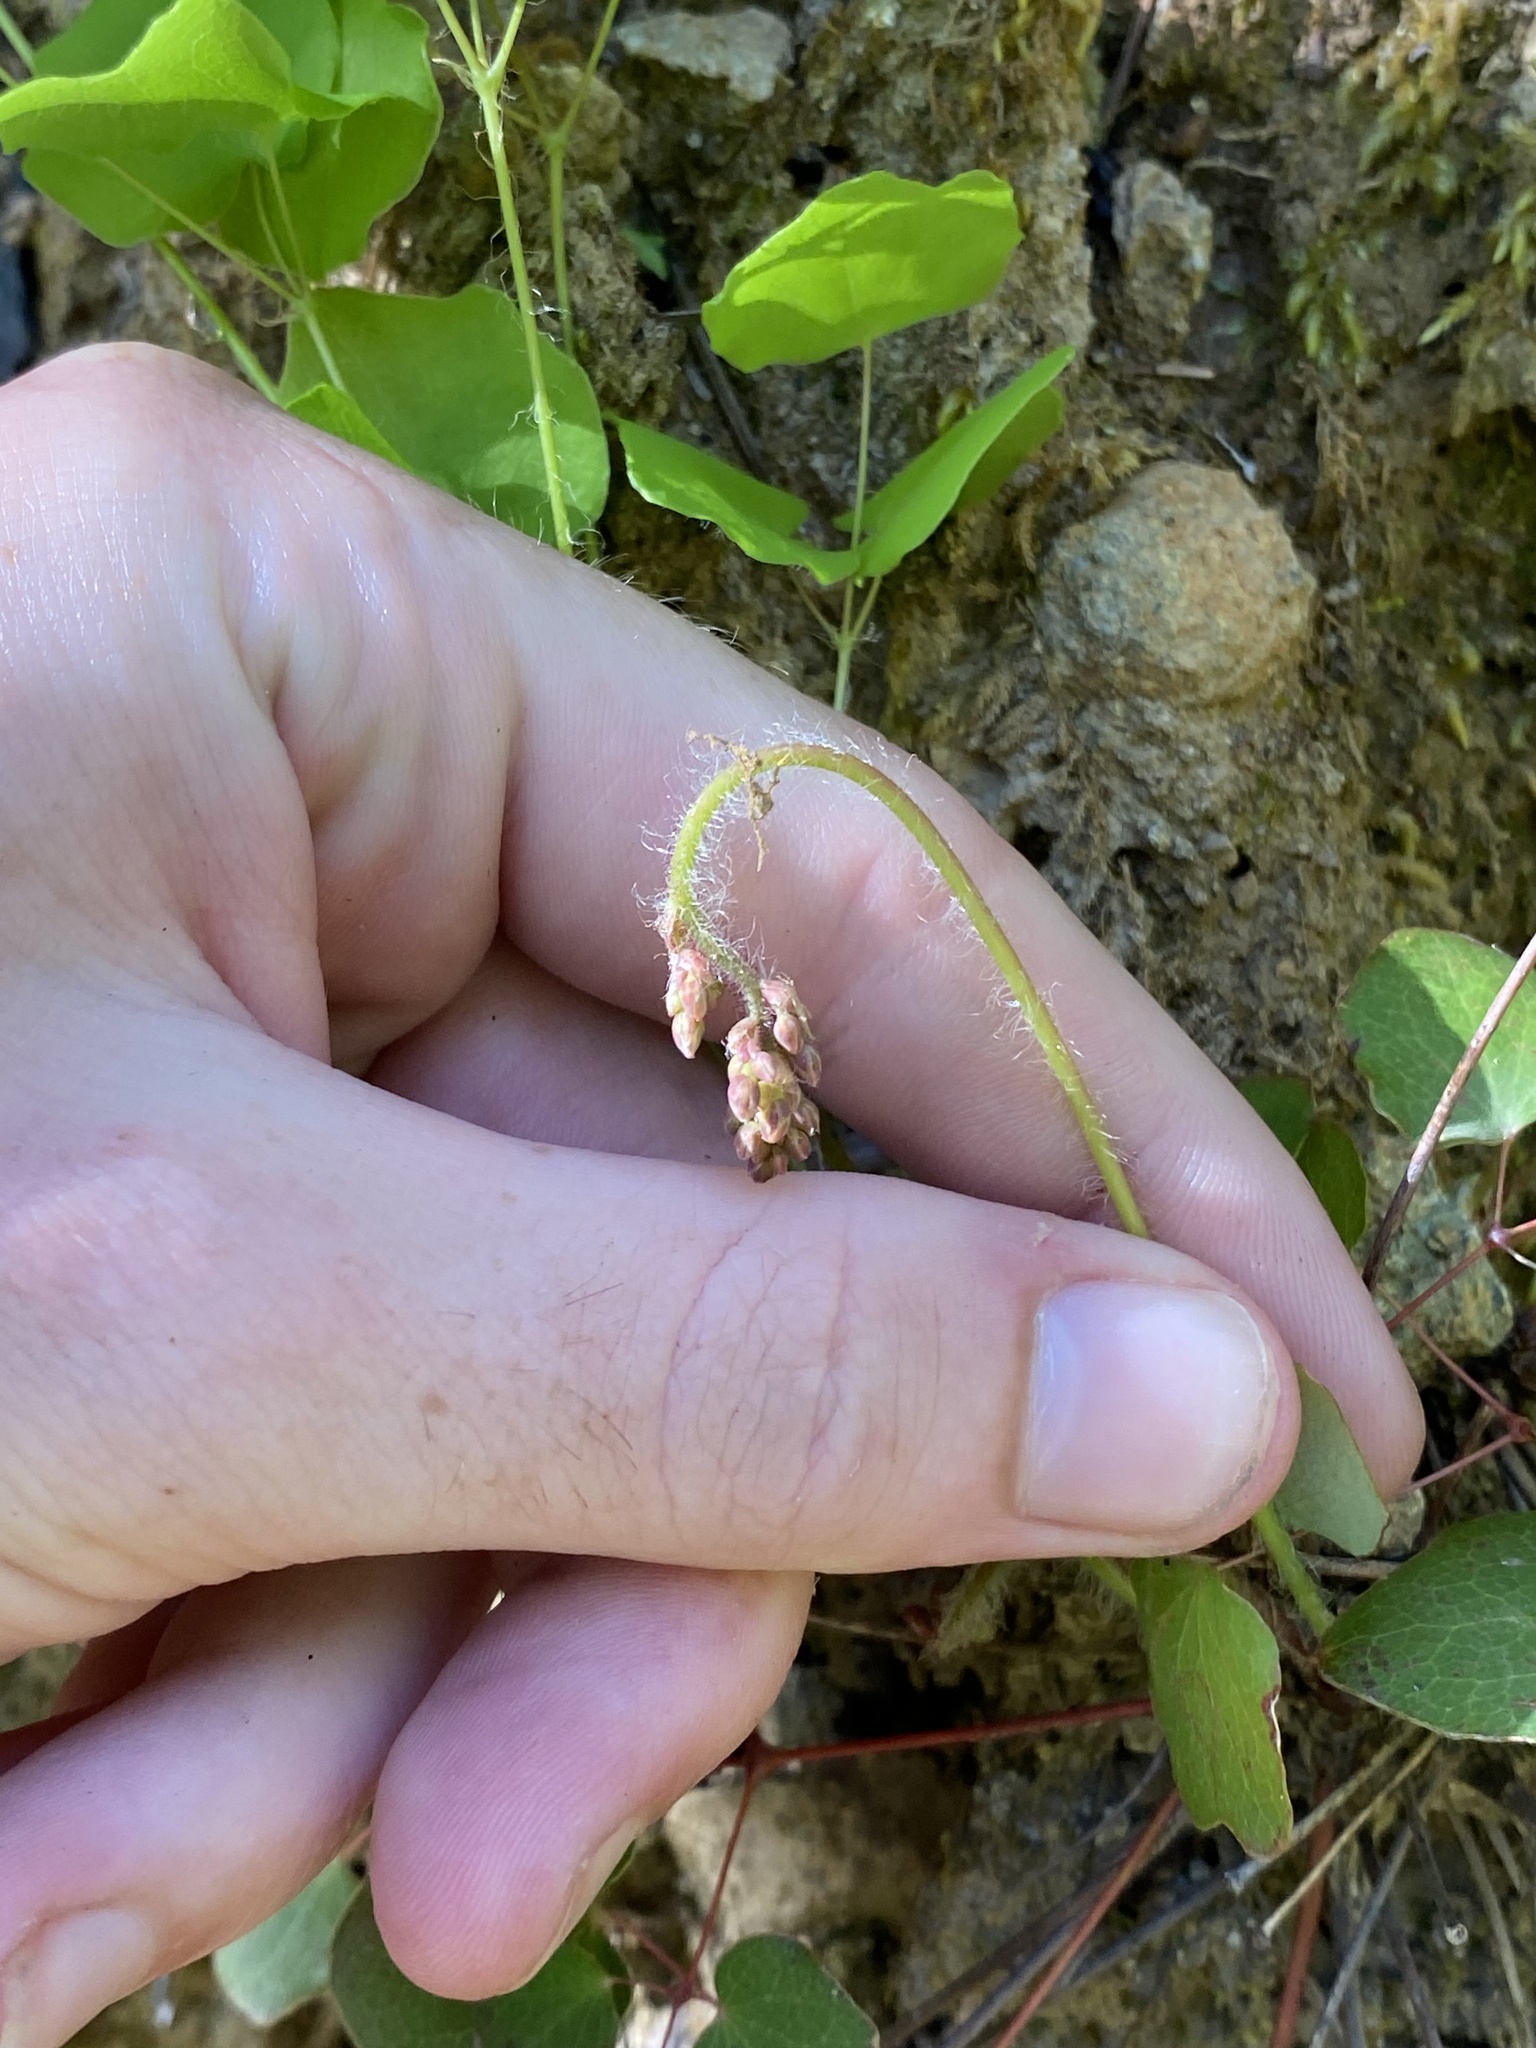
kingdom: Plantae
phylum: Tracheophyta
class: Magnoliopsida
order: Ranunculales
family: Berberidaceae
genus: Vancouveria
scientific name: Vancouveria planipetala
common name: Redwood-ivy
